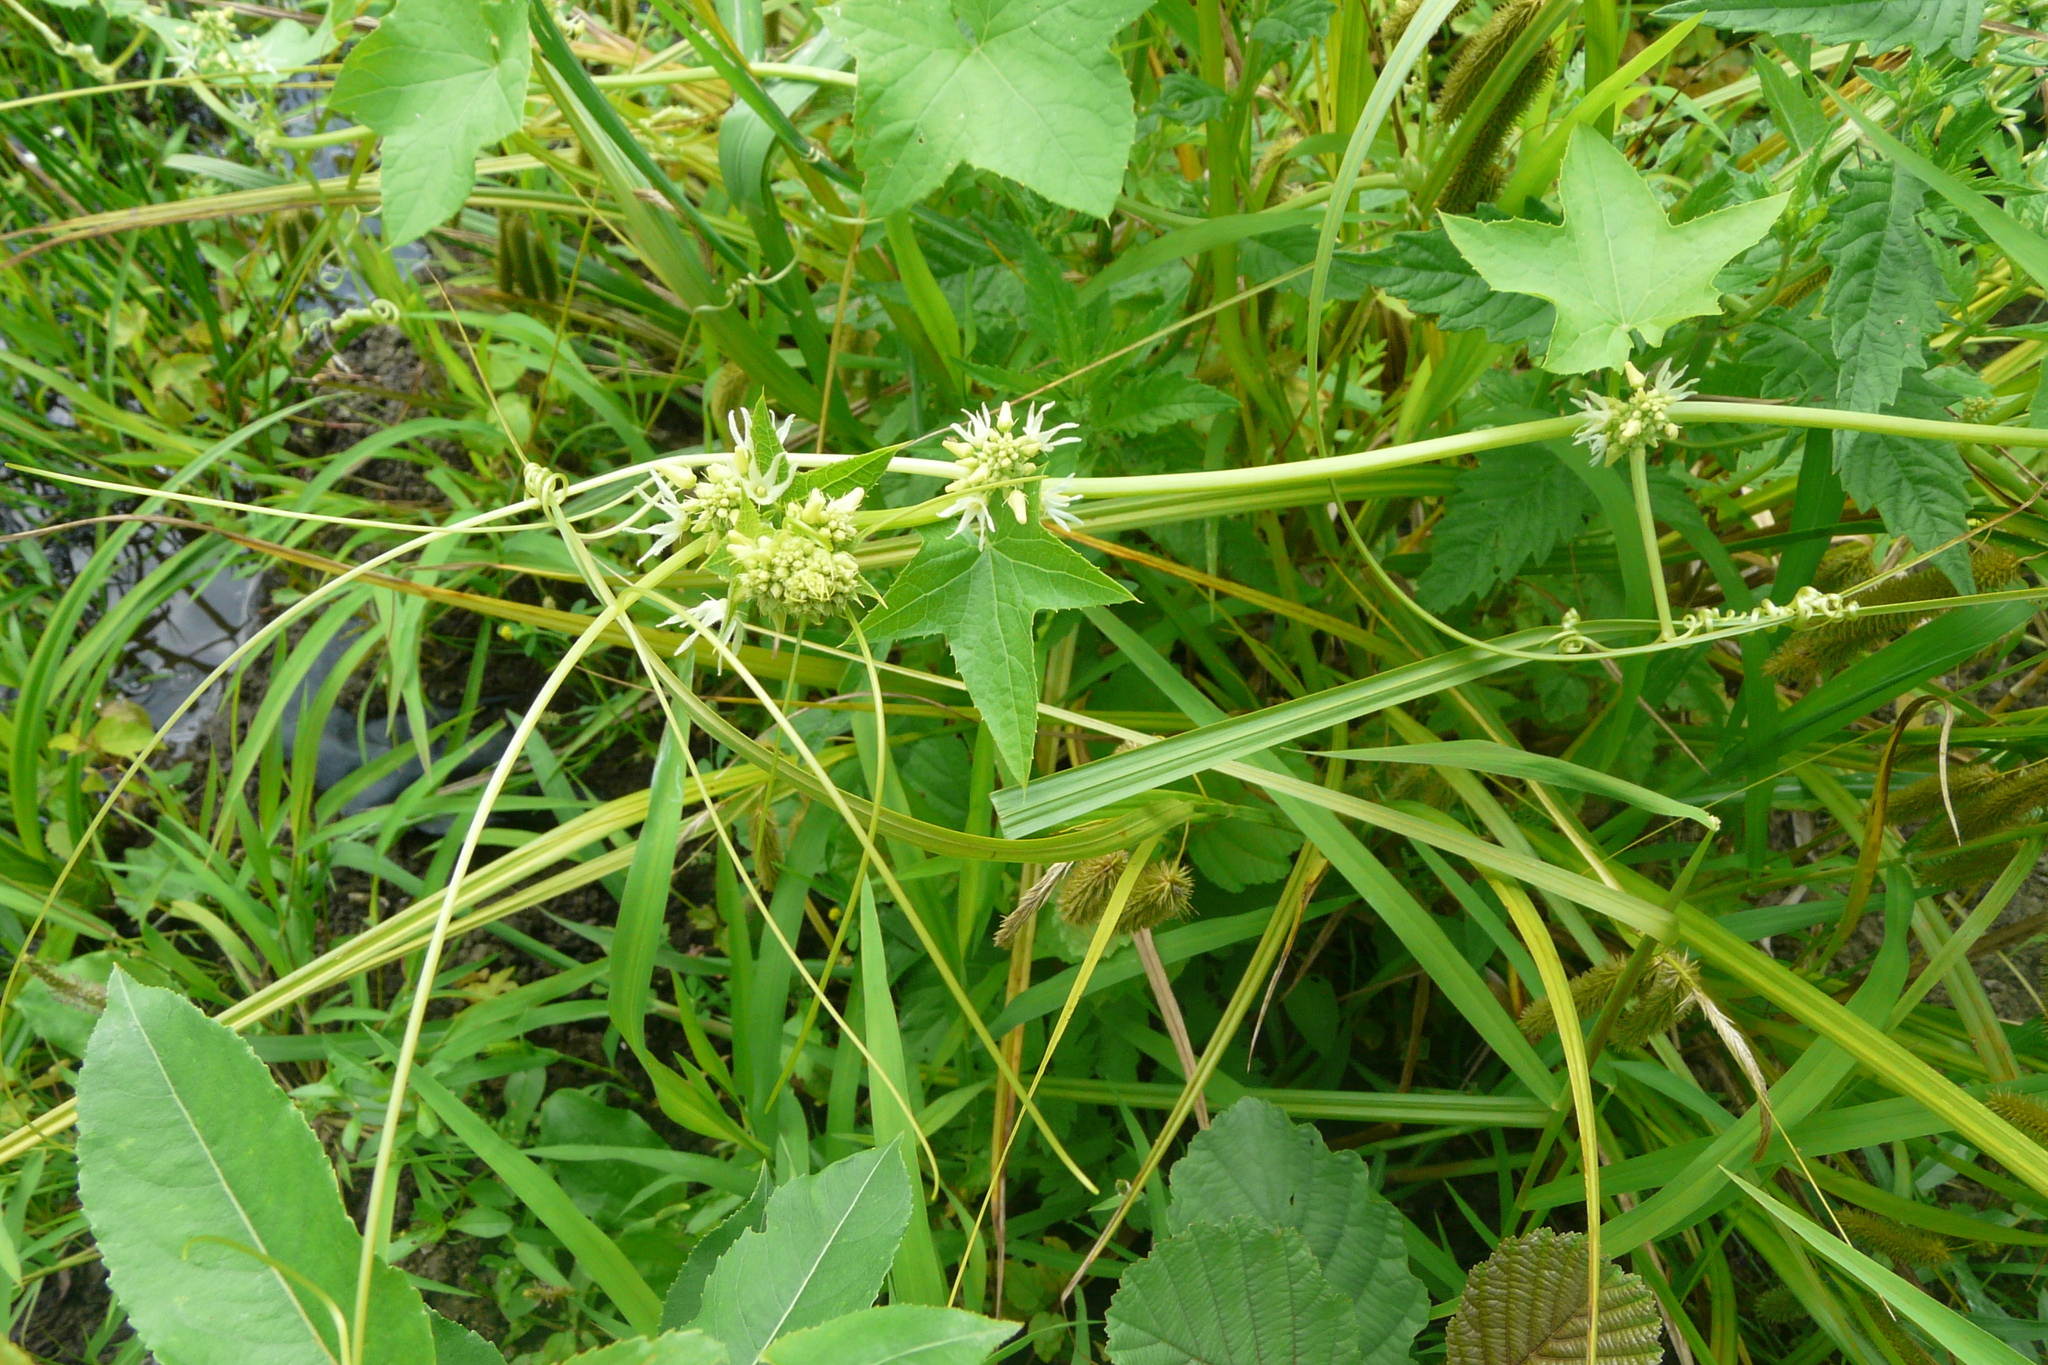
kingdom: Plantae
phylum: Tracheophyta
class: Magnoliopsida
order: Cucurbitales
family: Cucurbitaceae
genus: Echinocystis
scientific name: Echinocystis lobata
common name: Wild cucumber
